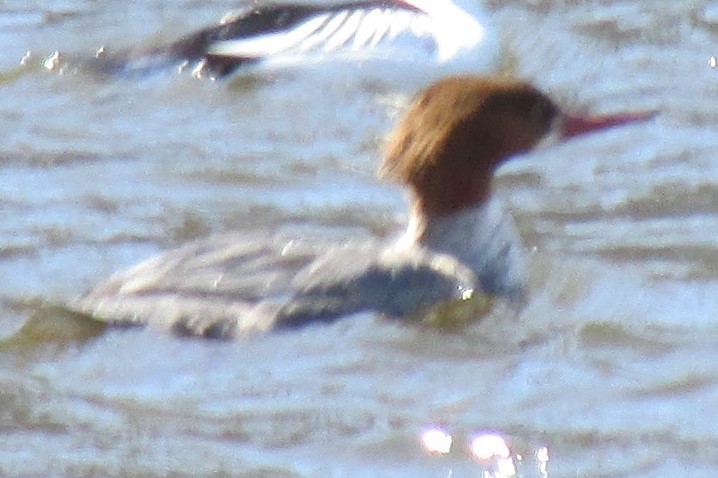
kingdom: Animalia
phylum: Chordata
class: Aves
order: Anseriformes
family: Anatidae
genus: Mergus
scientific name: Mergus merganser
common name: Common merganser
